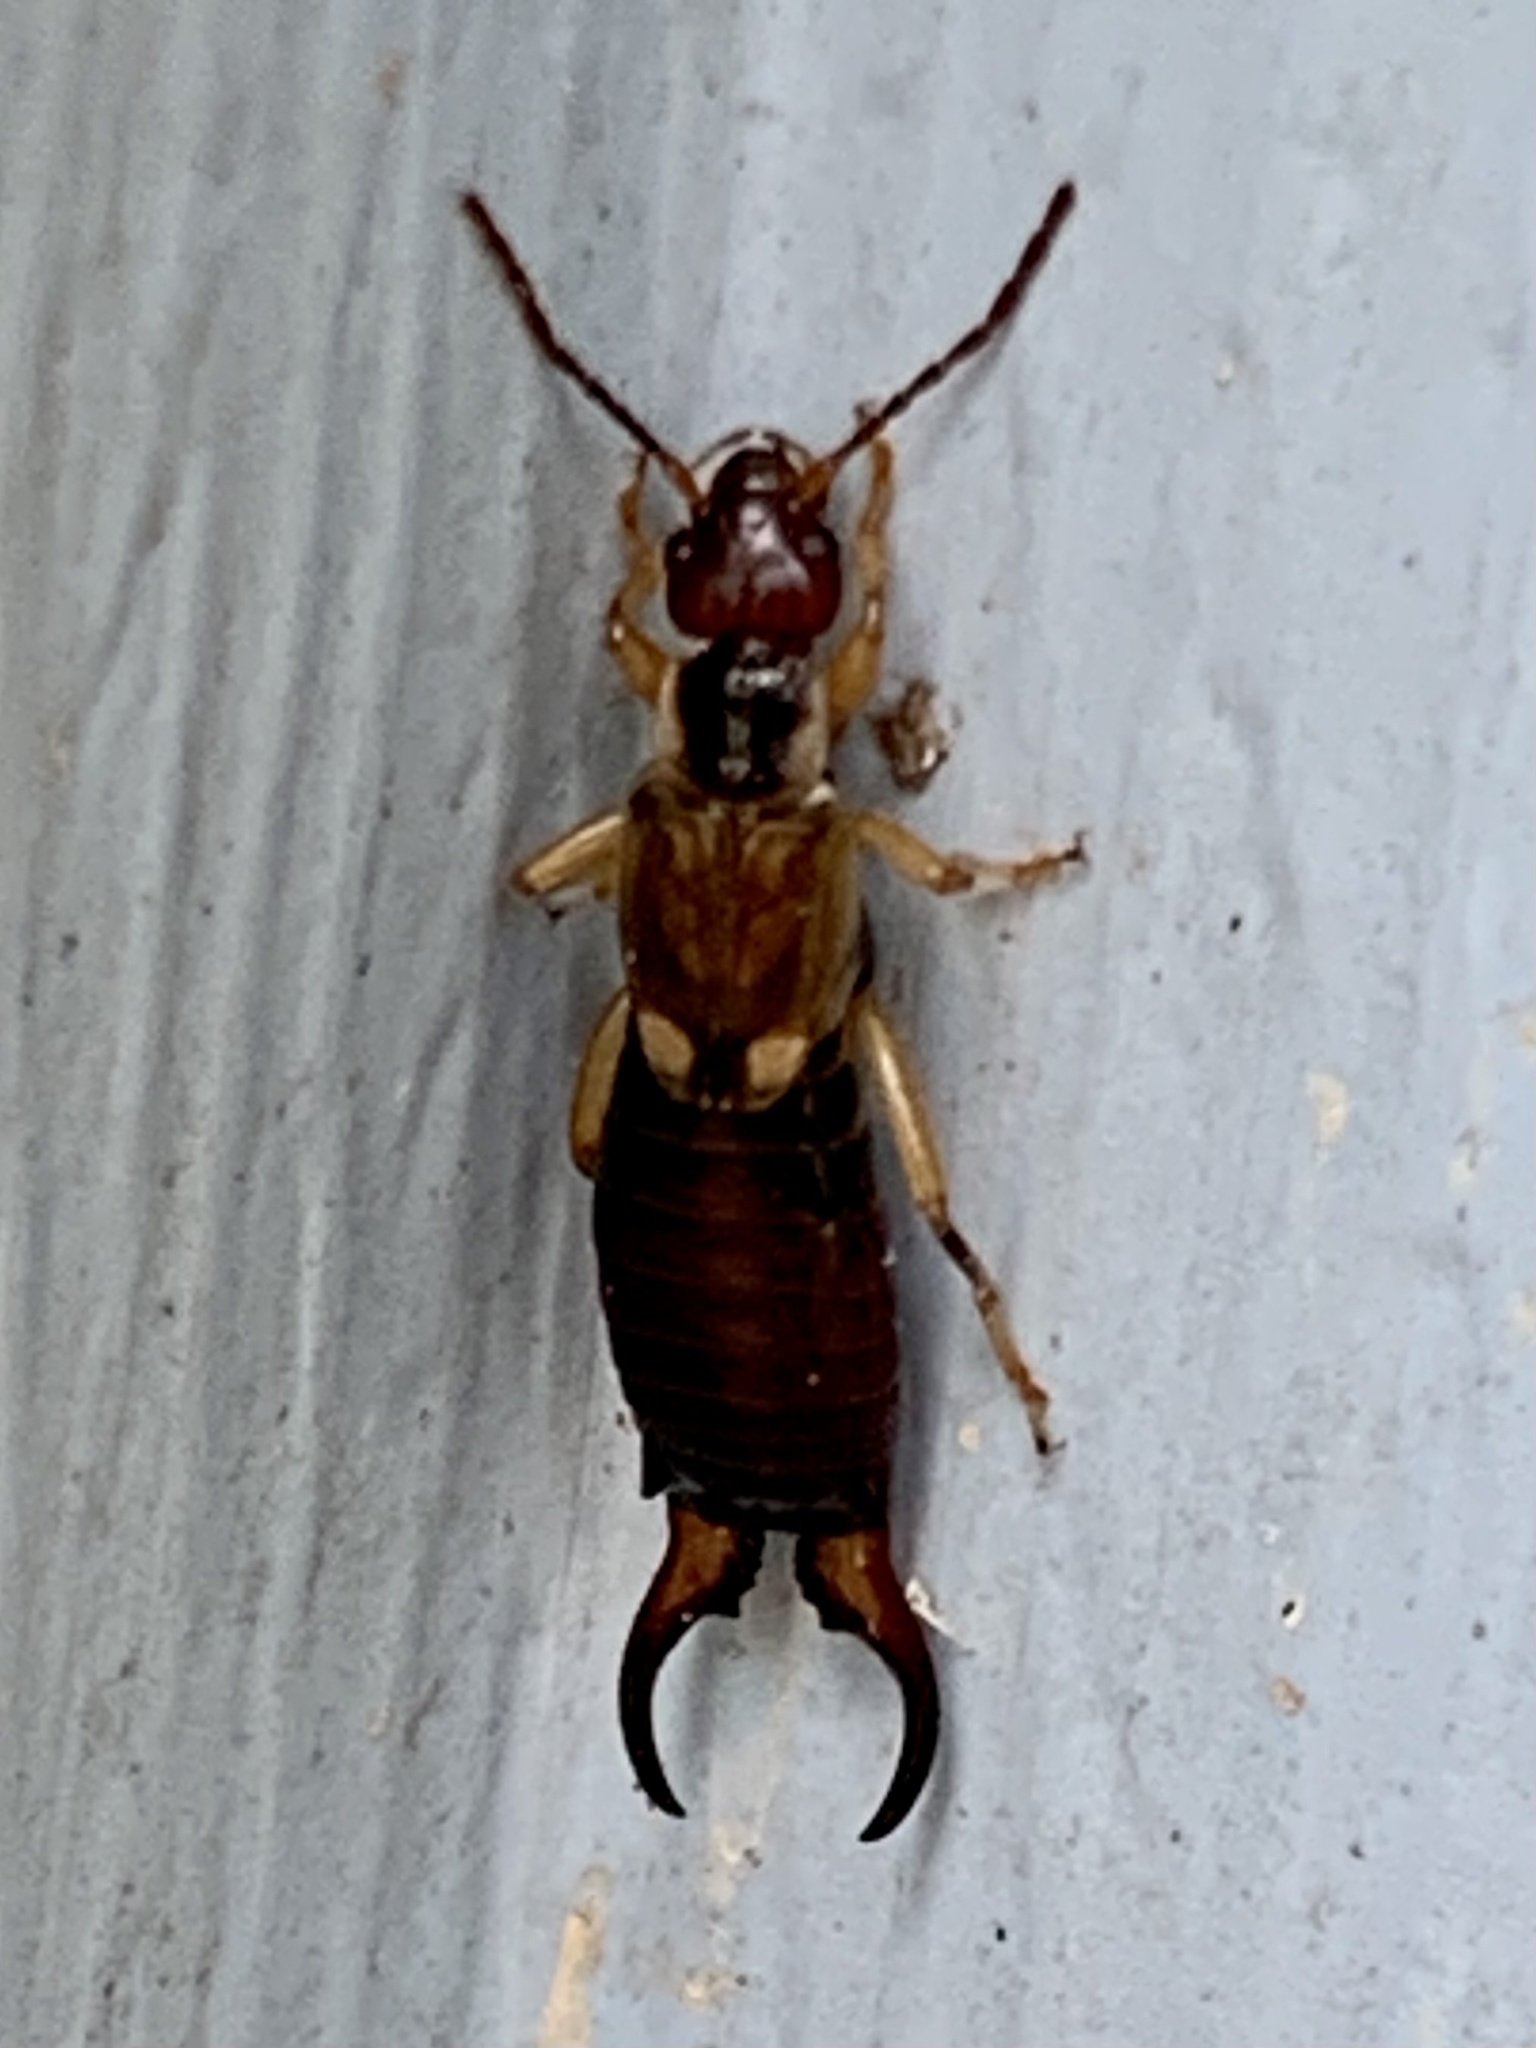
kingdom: Animalia
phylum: Arthropoda
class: Insecta
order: Dermaptera
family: Forficulidae
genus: Forficula
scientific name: Forficula
